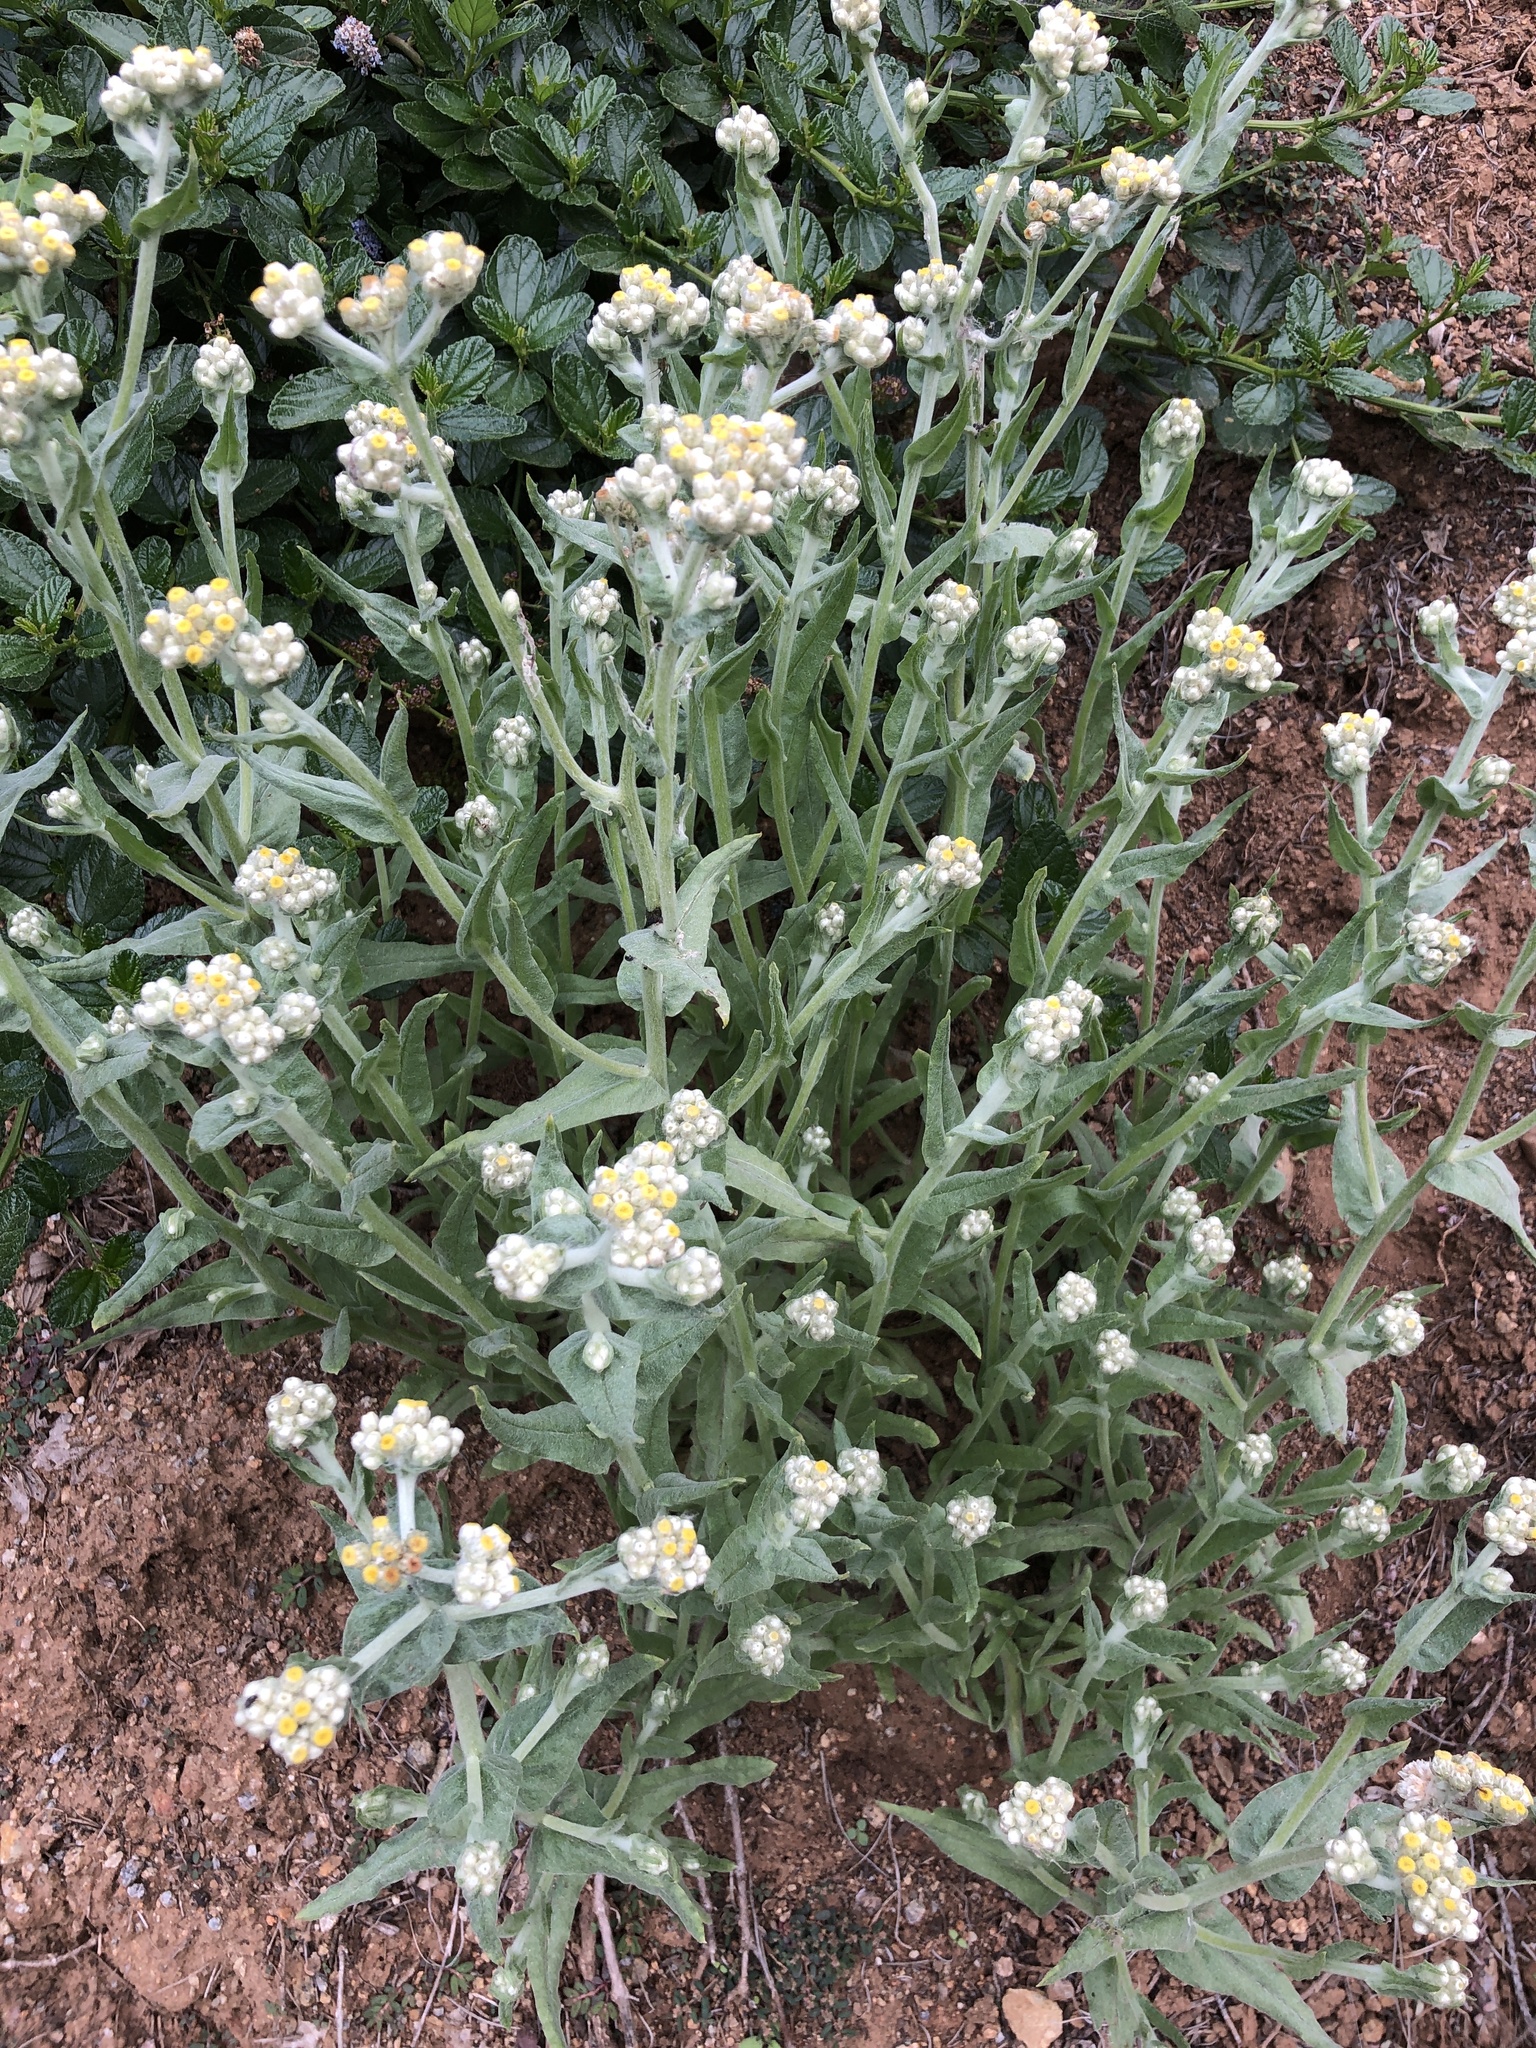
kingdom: Plantae
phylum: Tracheophyta
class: Magnoliopsida
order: Asterales
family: Asteraceae
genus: Pseudognaphalium
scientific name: Pseudognaphalium stramineum
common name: Cotton-batting-plant
